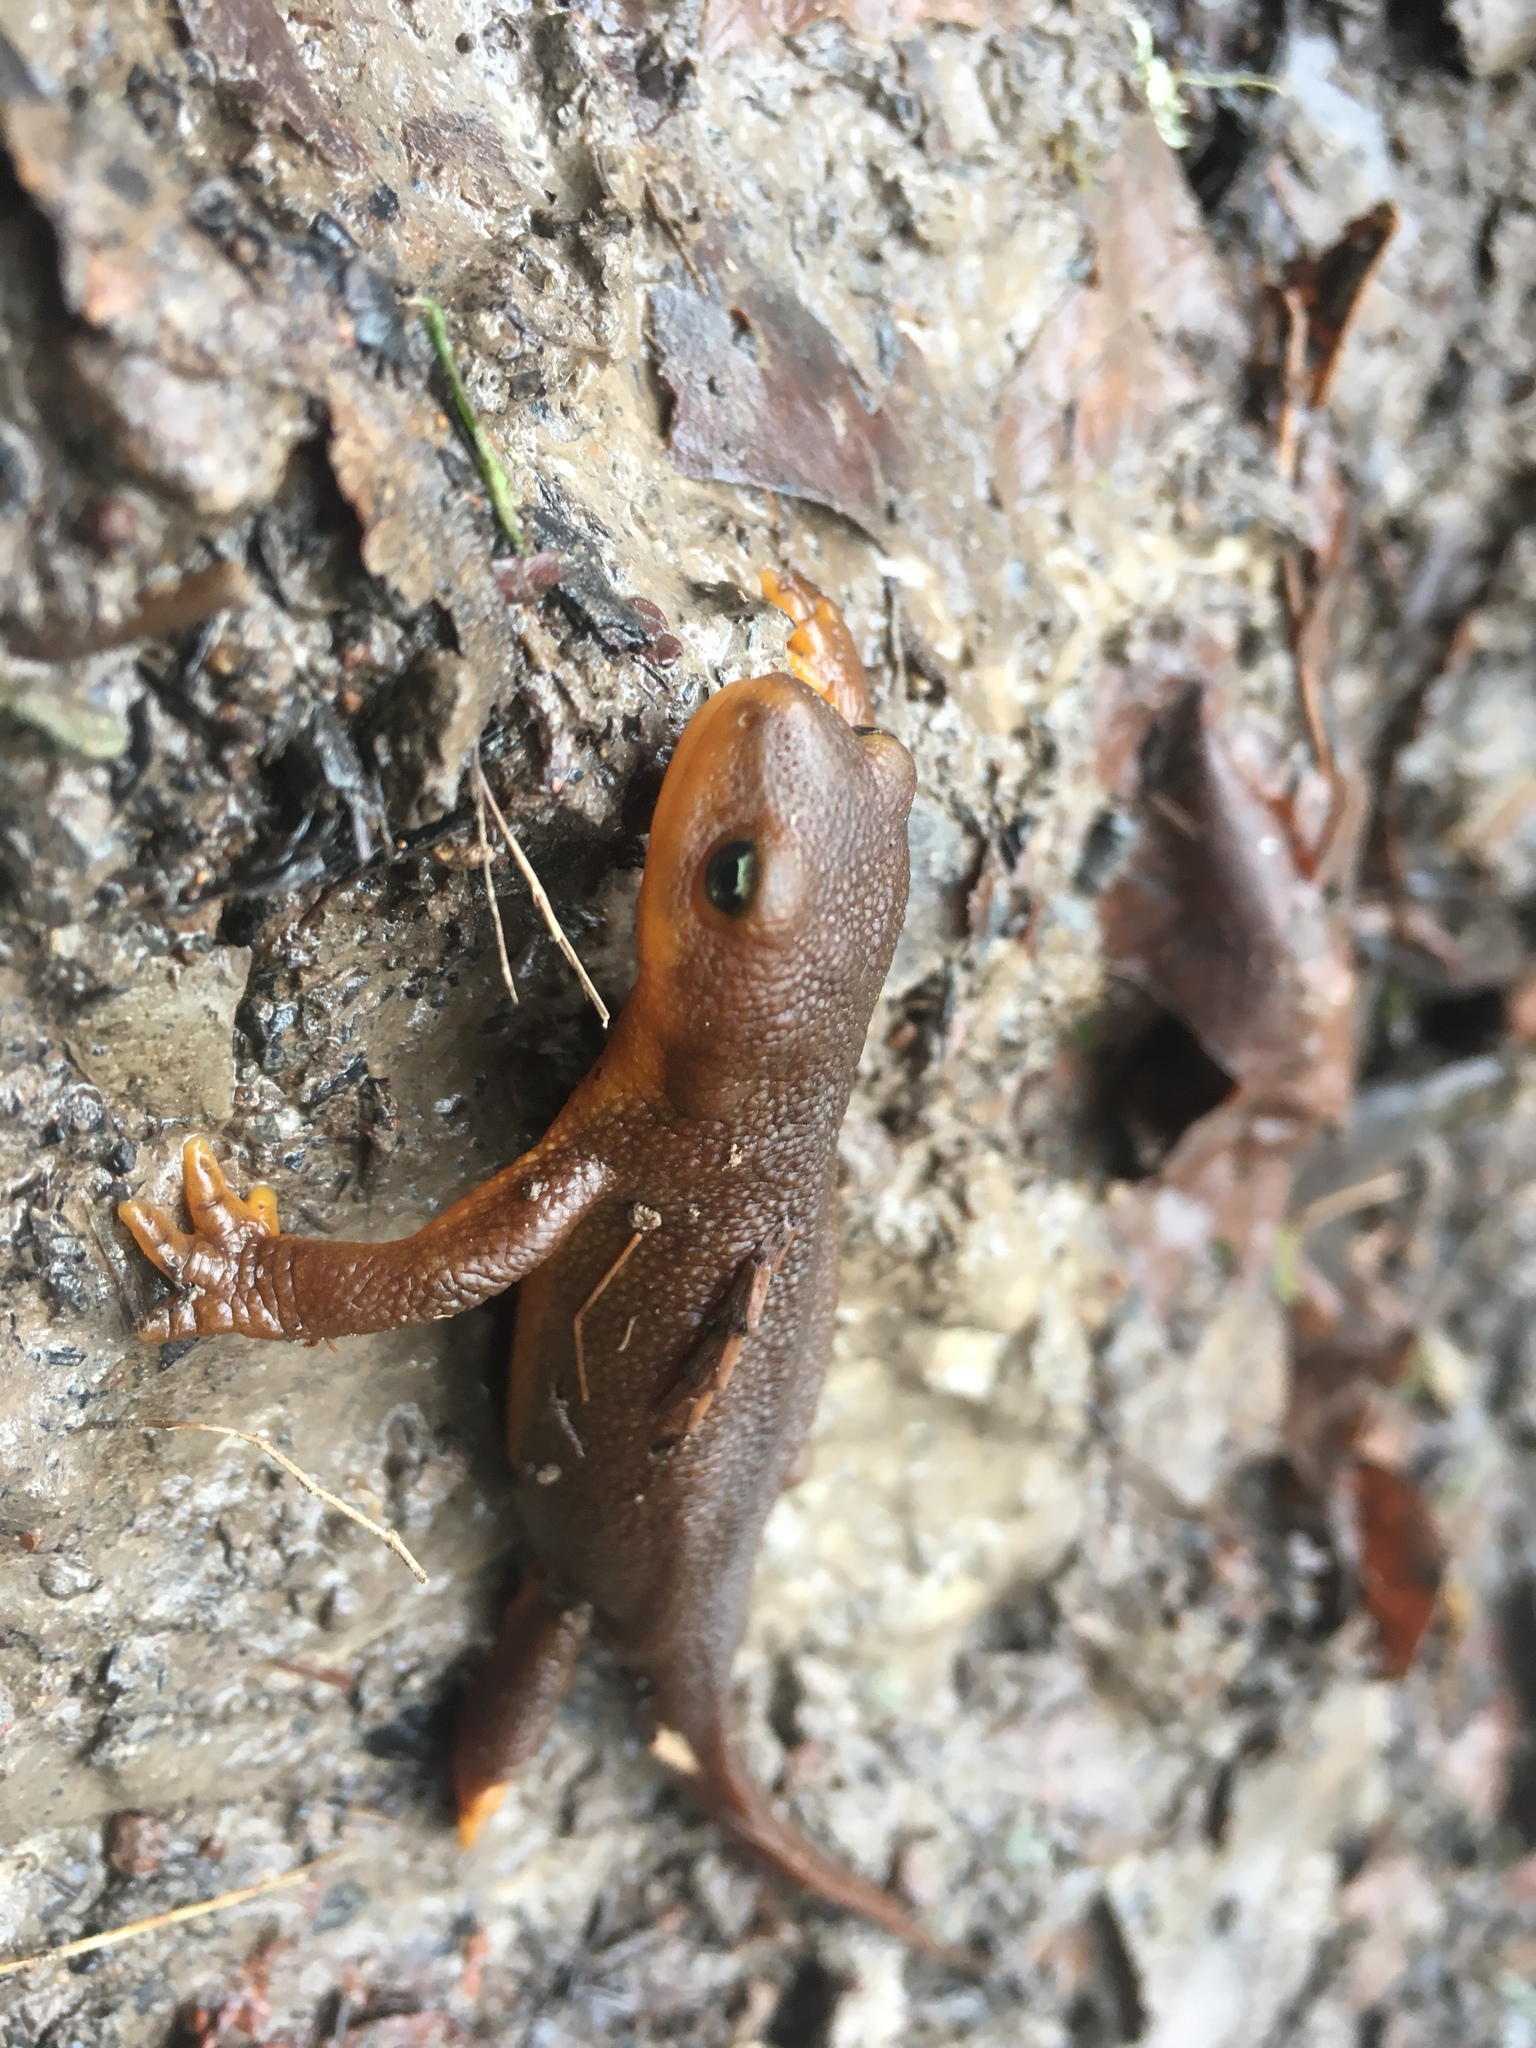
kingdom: Animalia
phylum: Chordata
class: Amphibia
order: Caudata
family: Salamandridae
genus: Taricha
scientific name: Taricha granulosa
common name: Roughskin newt
